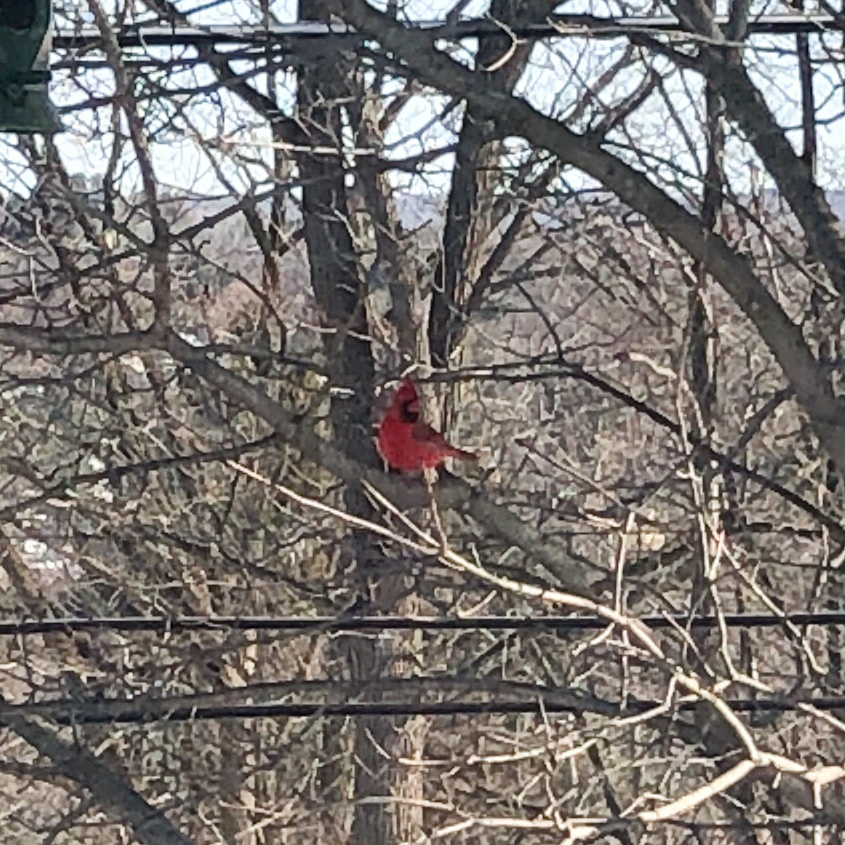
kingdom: Animalia
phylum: Chordata
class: Aves
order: Passeriformes
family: Cardinalidae
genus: Cardinalis
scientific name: Cardinalis cardinalis
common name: Northern cardinal
